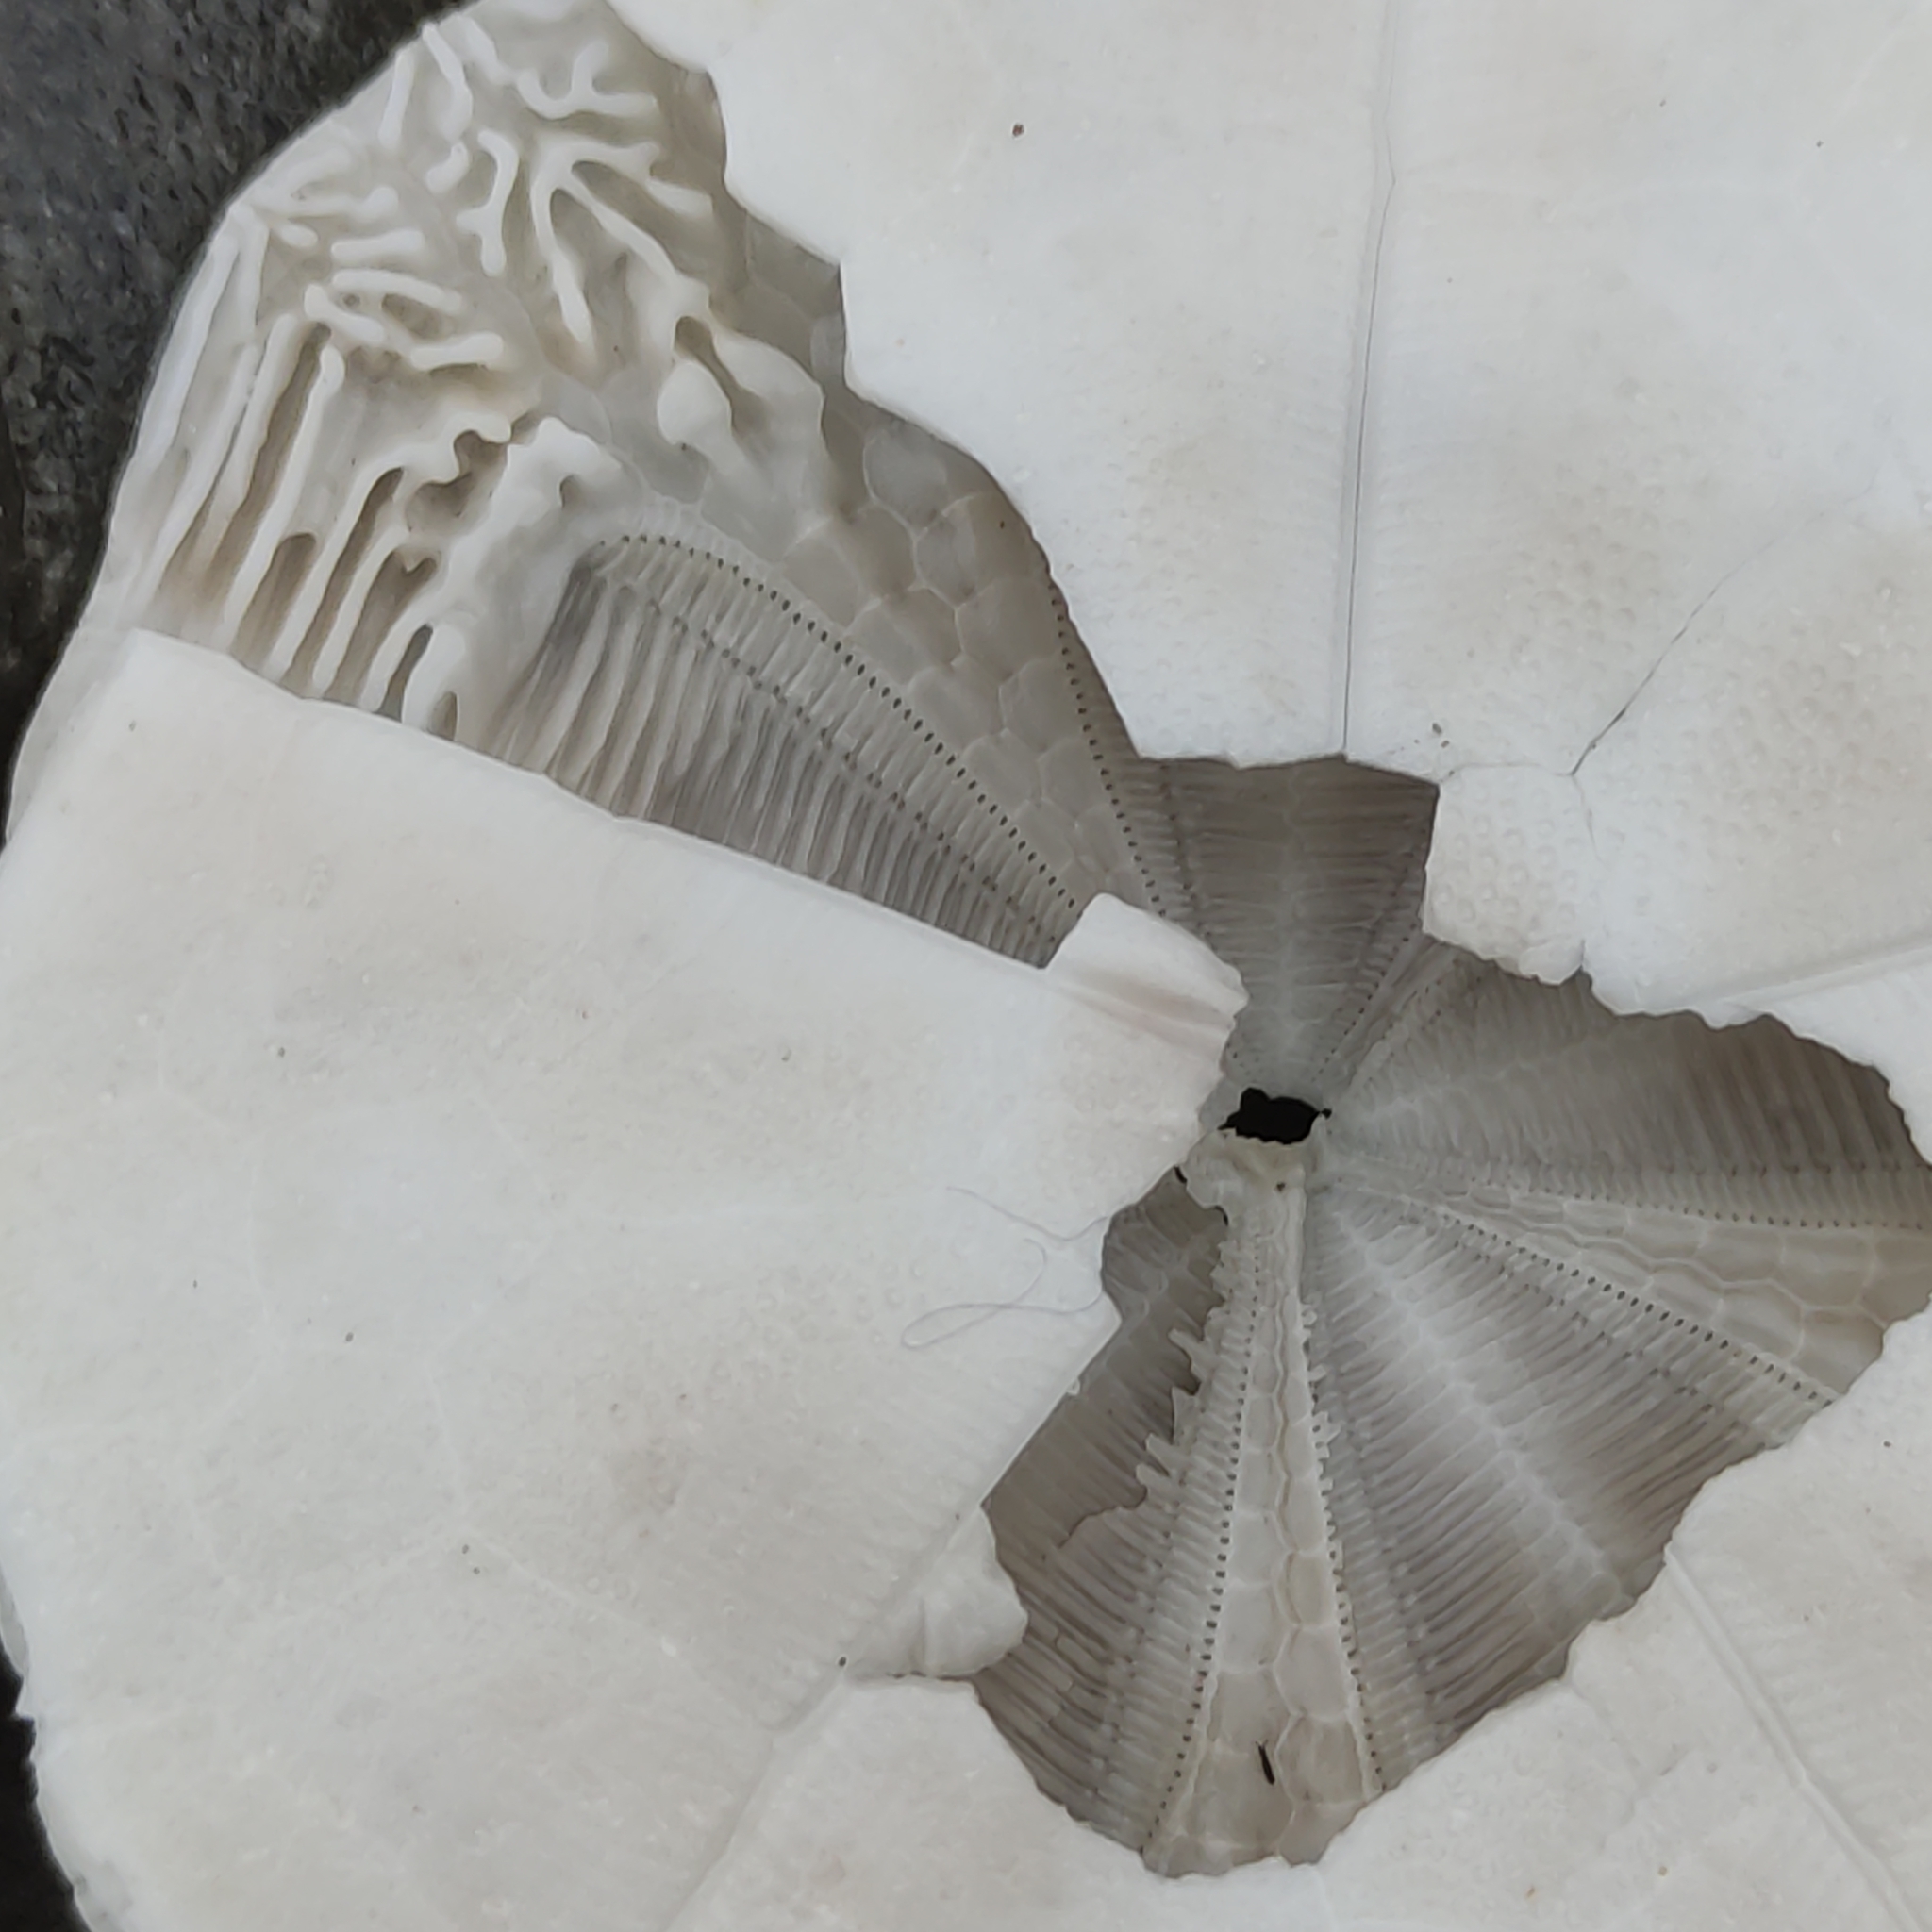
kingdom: Animalia
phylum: Echinodermata
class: Echinoidea
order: Clypeasteroida
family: Clypeasteridae
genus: Fellaster
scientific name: Fellaster zelandiae
